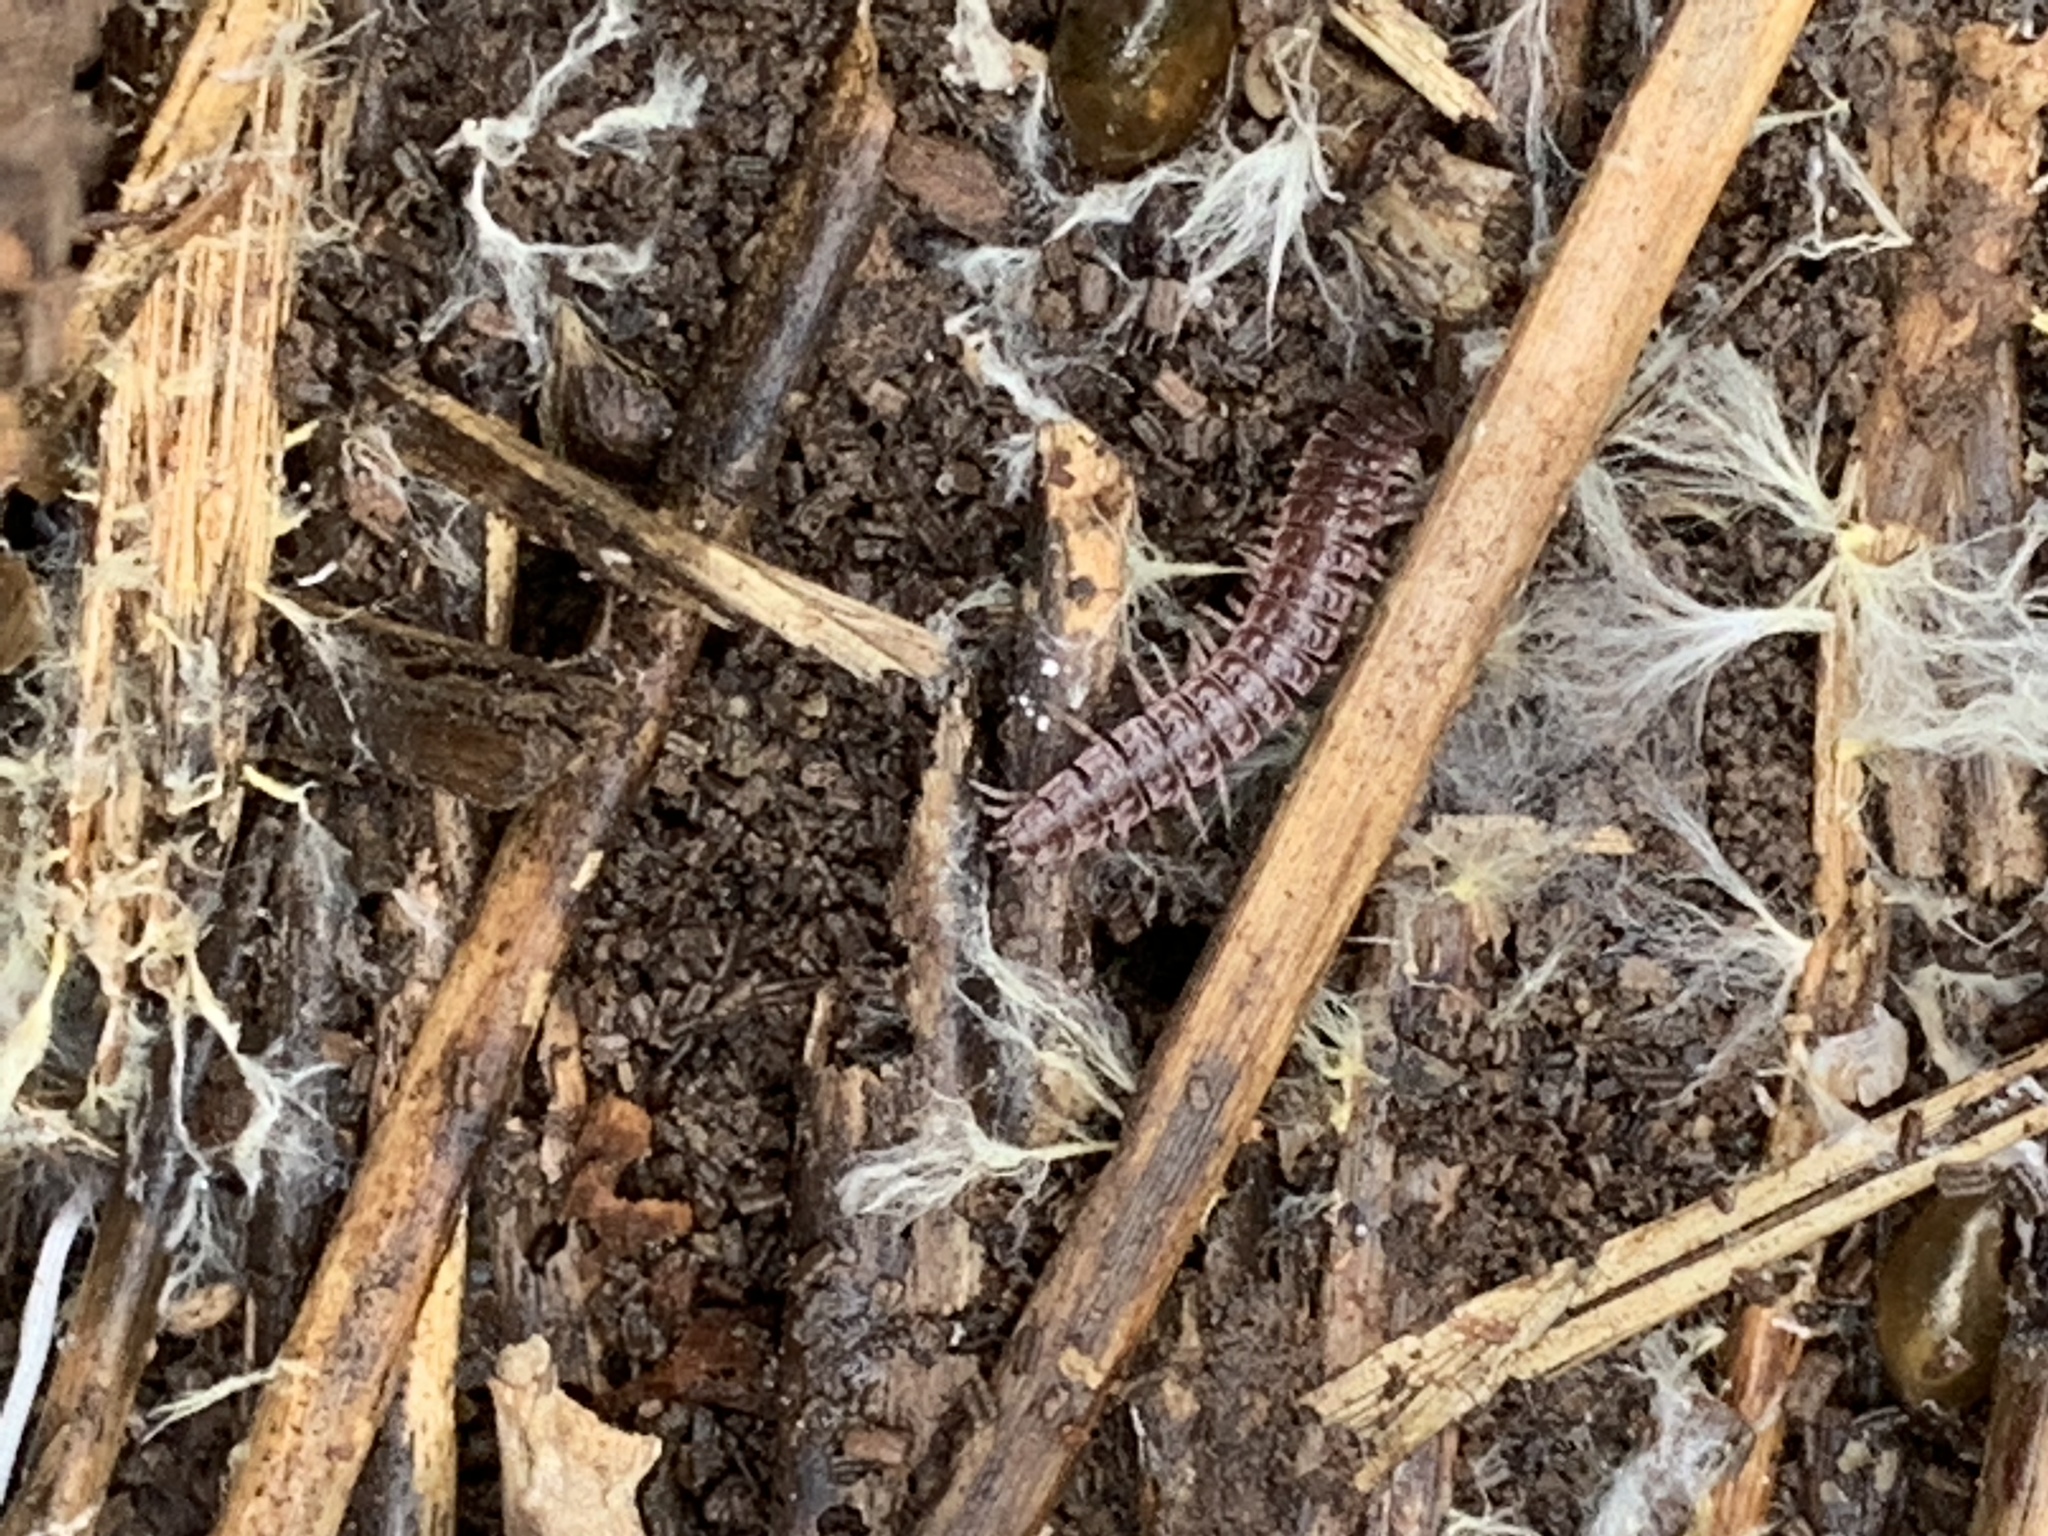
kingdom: Animalia
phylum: Arthropoda
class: Diplopoda
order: Polydesmida
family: Polydesmidae
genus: Pseudopolydesmus
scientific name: Pseudopolydesmus pinetorum
